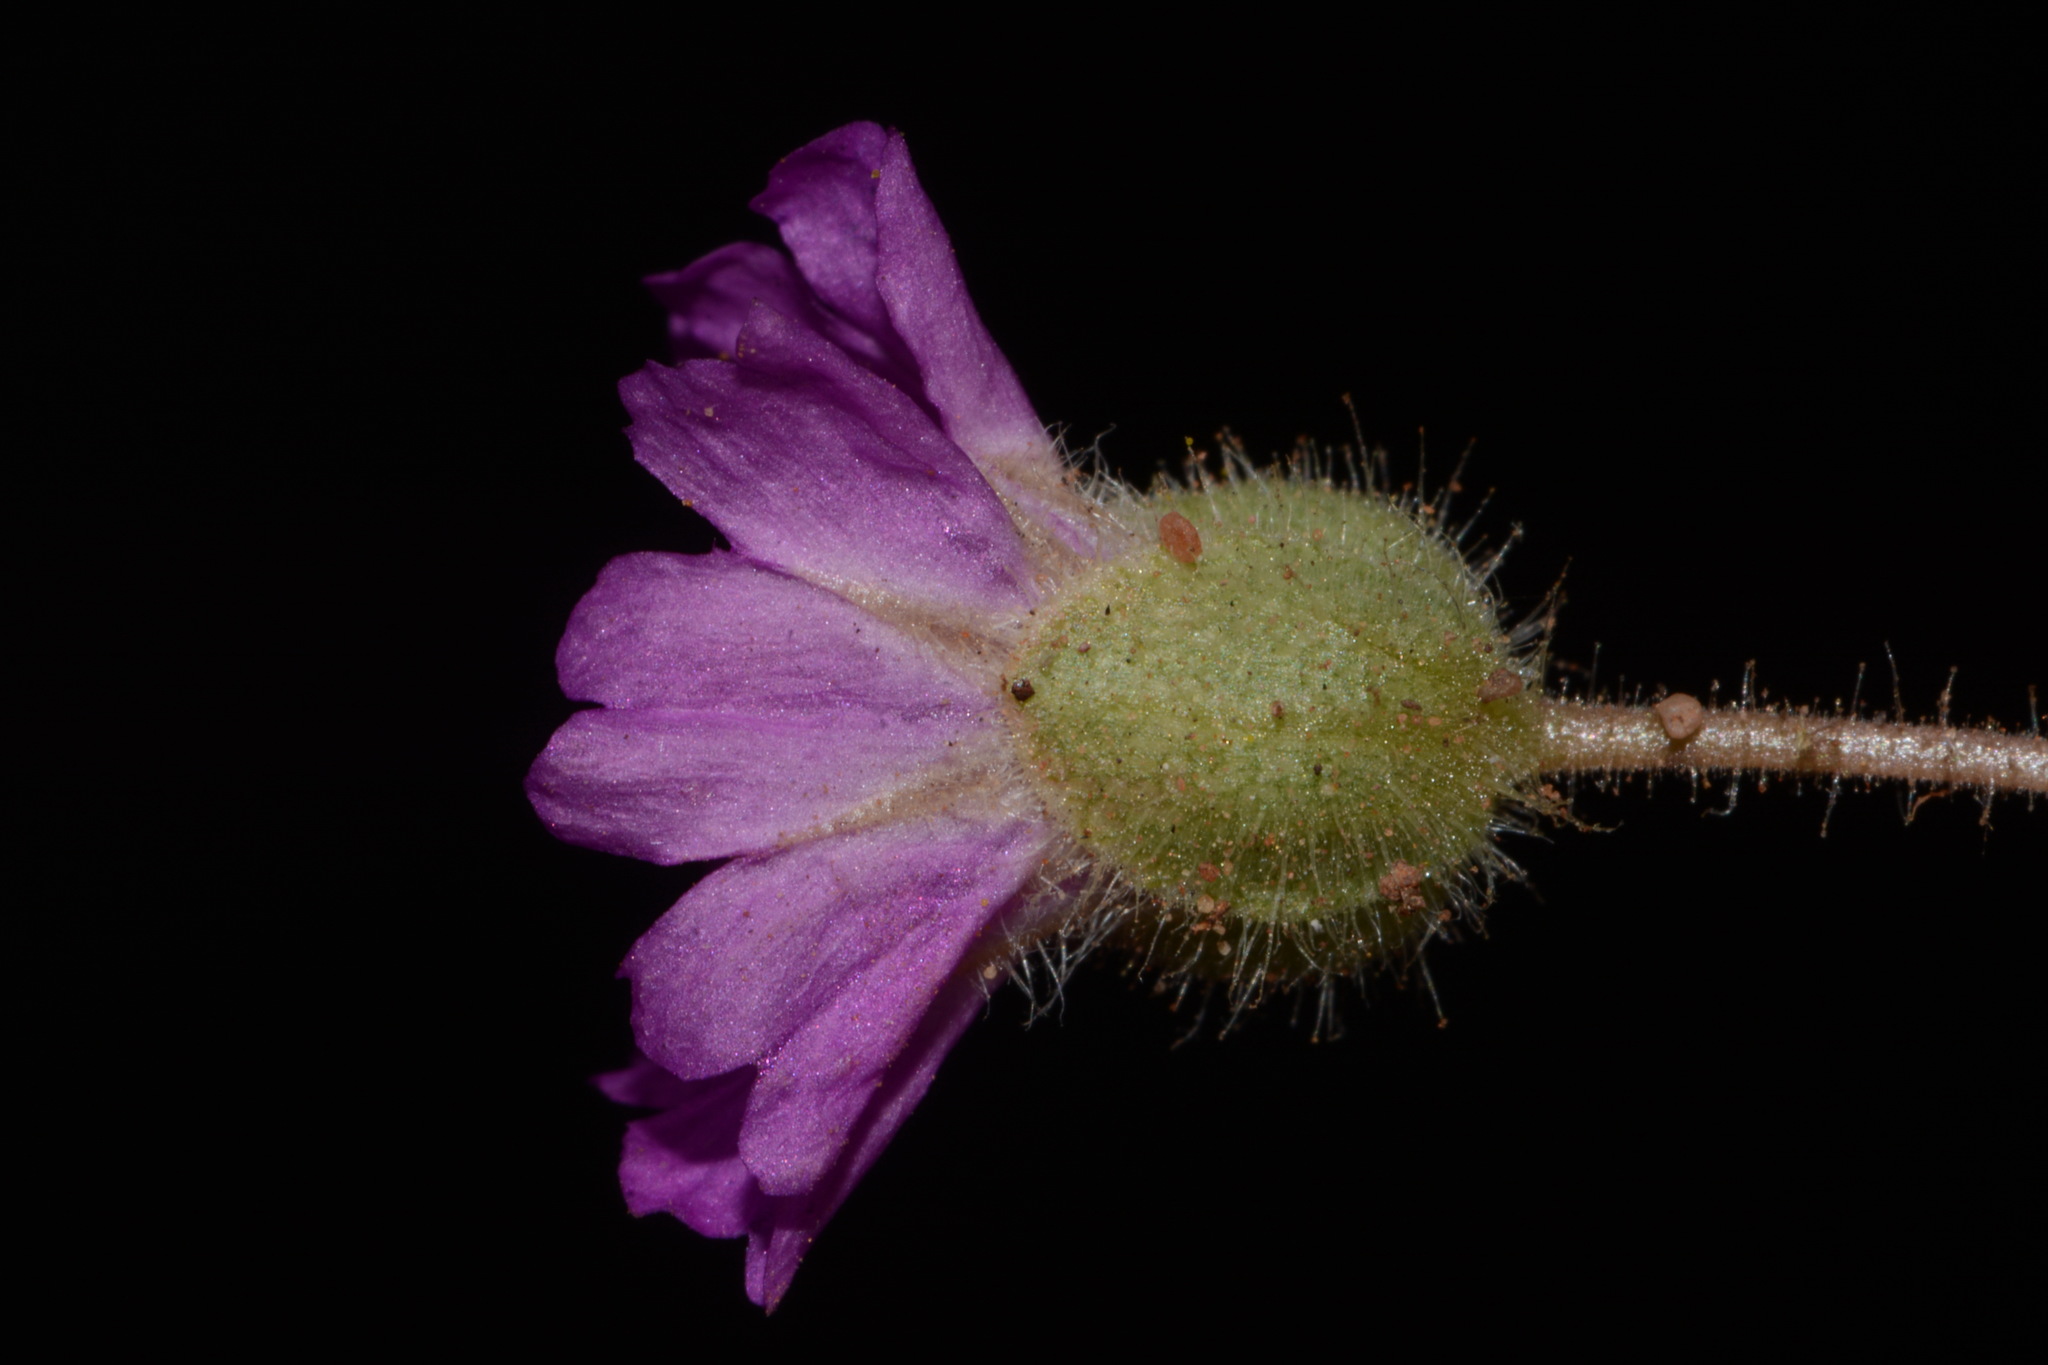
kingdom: Plantae
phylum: Tracheophyta
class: Magnoliopsida
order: Caryophyllales
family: Nyctaginaceae
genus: Allionia
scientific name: Allionia incarnata
